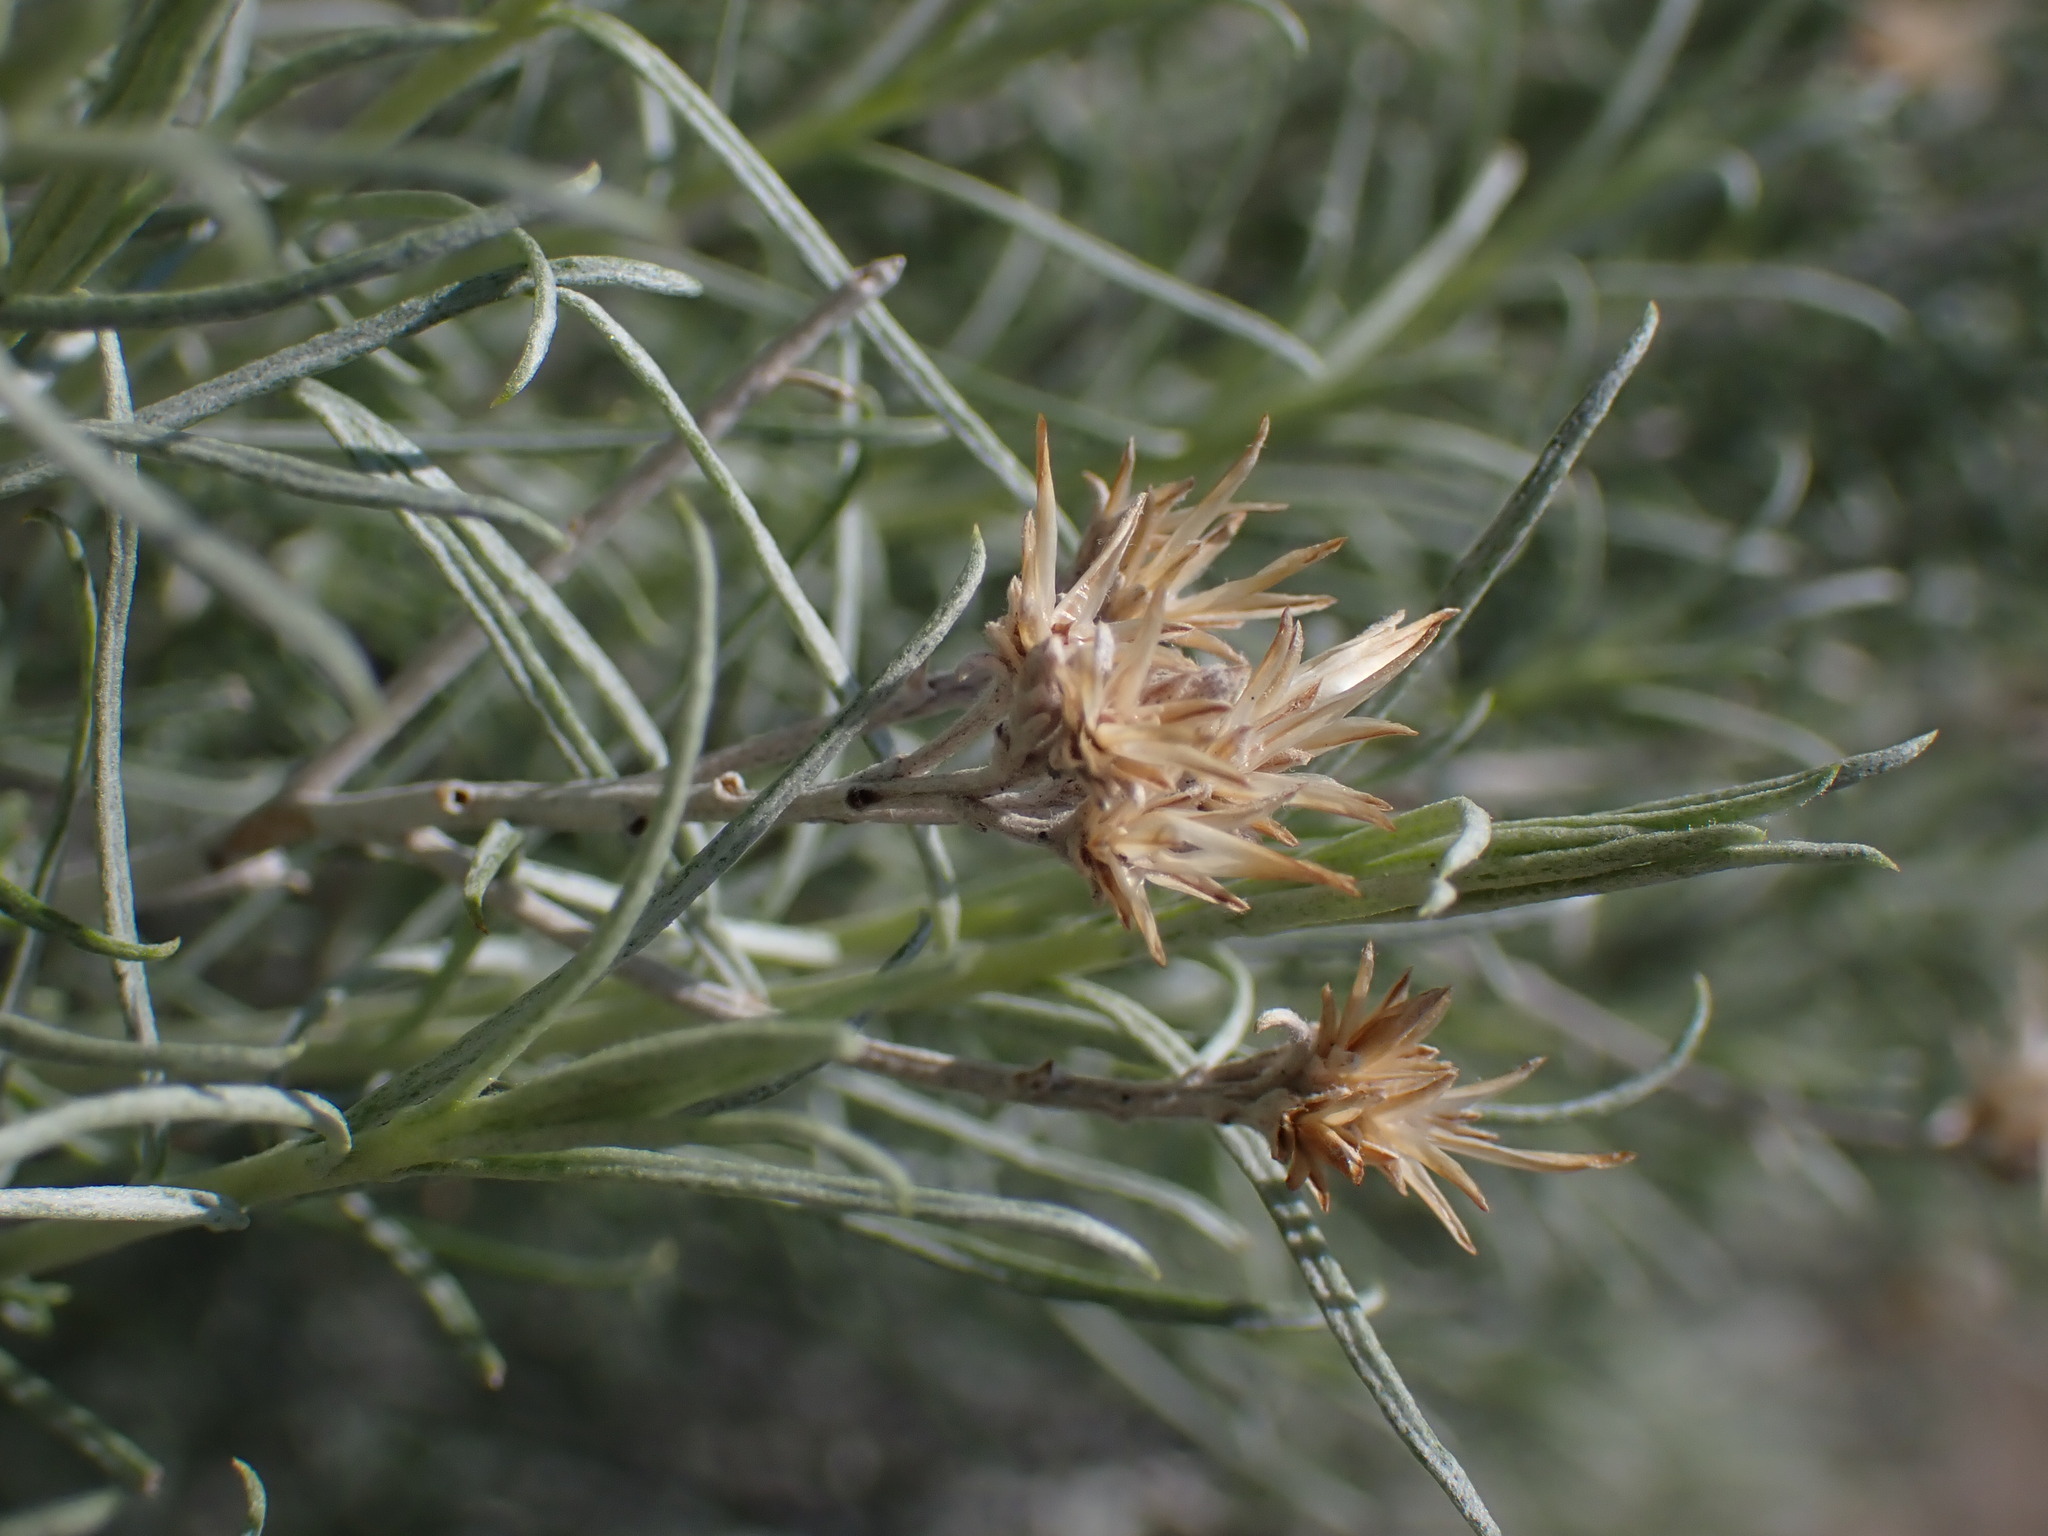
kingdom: Plantae
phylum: Tracheophyta
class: Magnoliopsida
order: Asterales
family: Asteraceae
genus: Ericameria
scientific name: Ericameria nauseosa
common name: Rubber rabbitbrush
